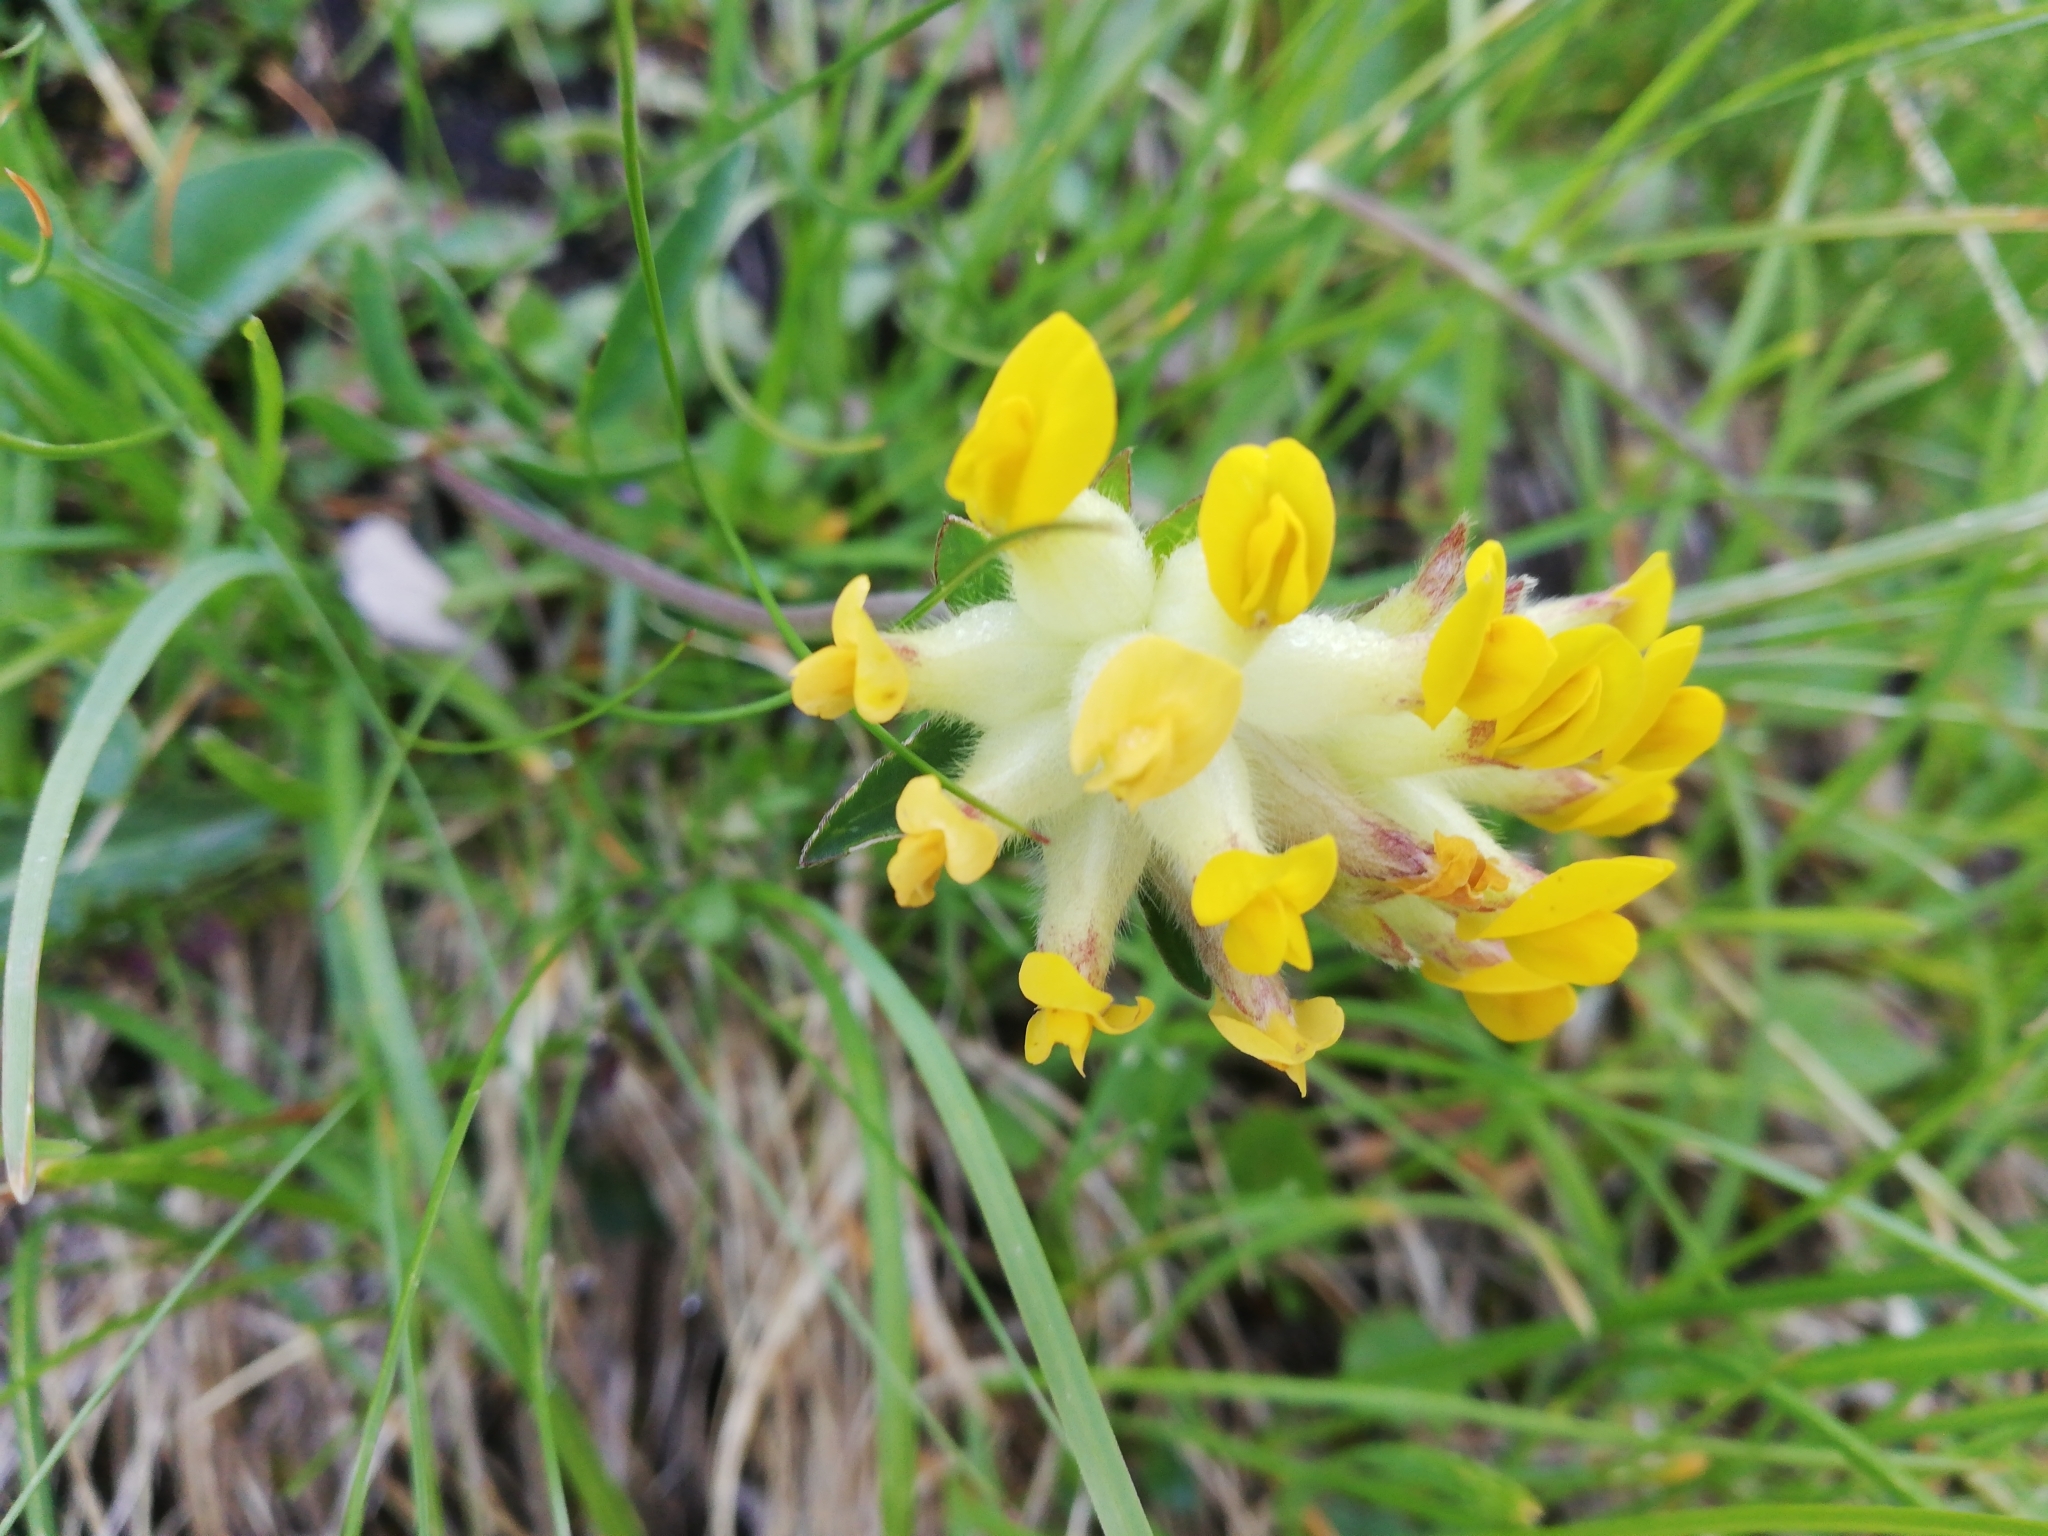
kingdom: Plantae
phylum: Tracheophyta
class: Magnoliopsida
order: Fabales
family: Fabaceae
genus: Anthyllis
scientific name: Anthyllis vulneraria
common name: Kidney vetch
